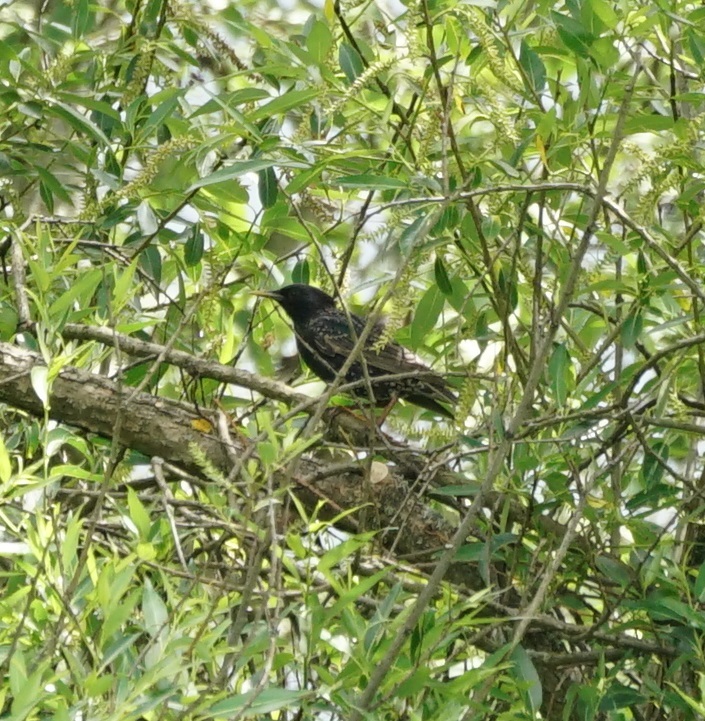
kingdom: Animalia
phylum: Chordata
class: Aves
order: Passeriformes
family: Sturnidae
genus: Sturnus
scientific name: Sturnus vulgaris
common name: Common starling
